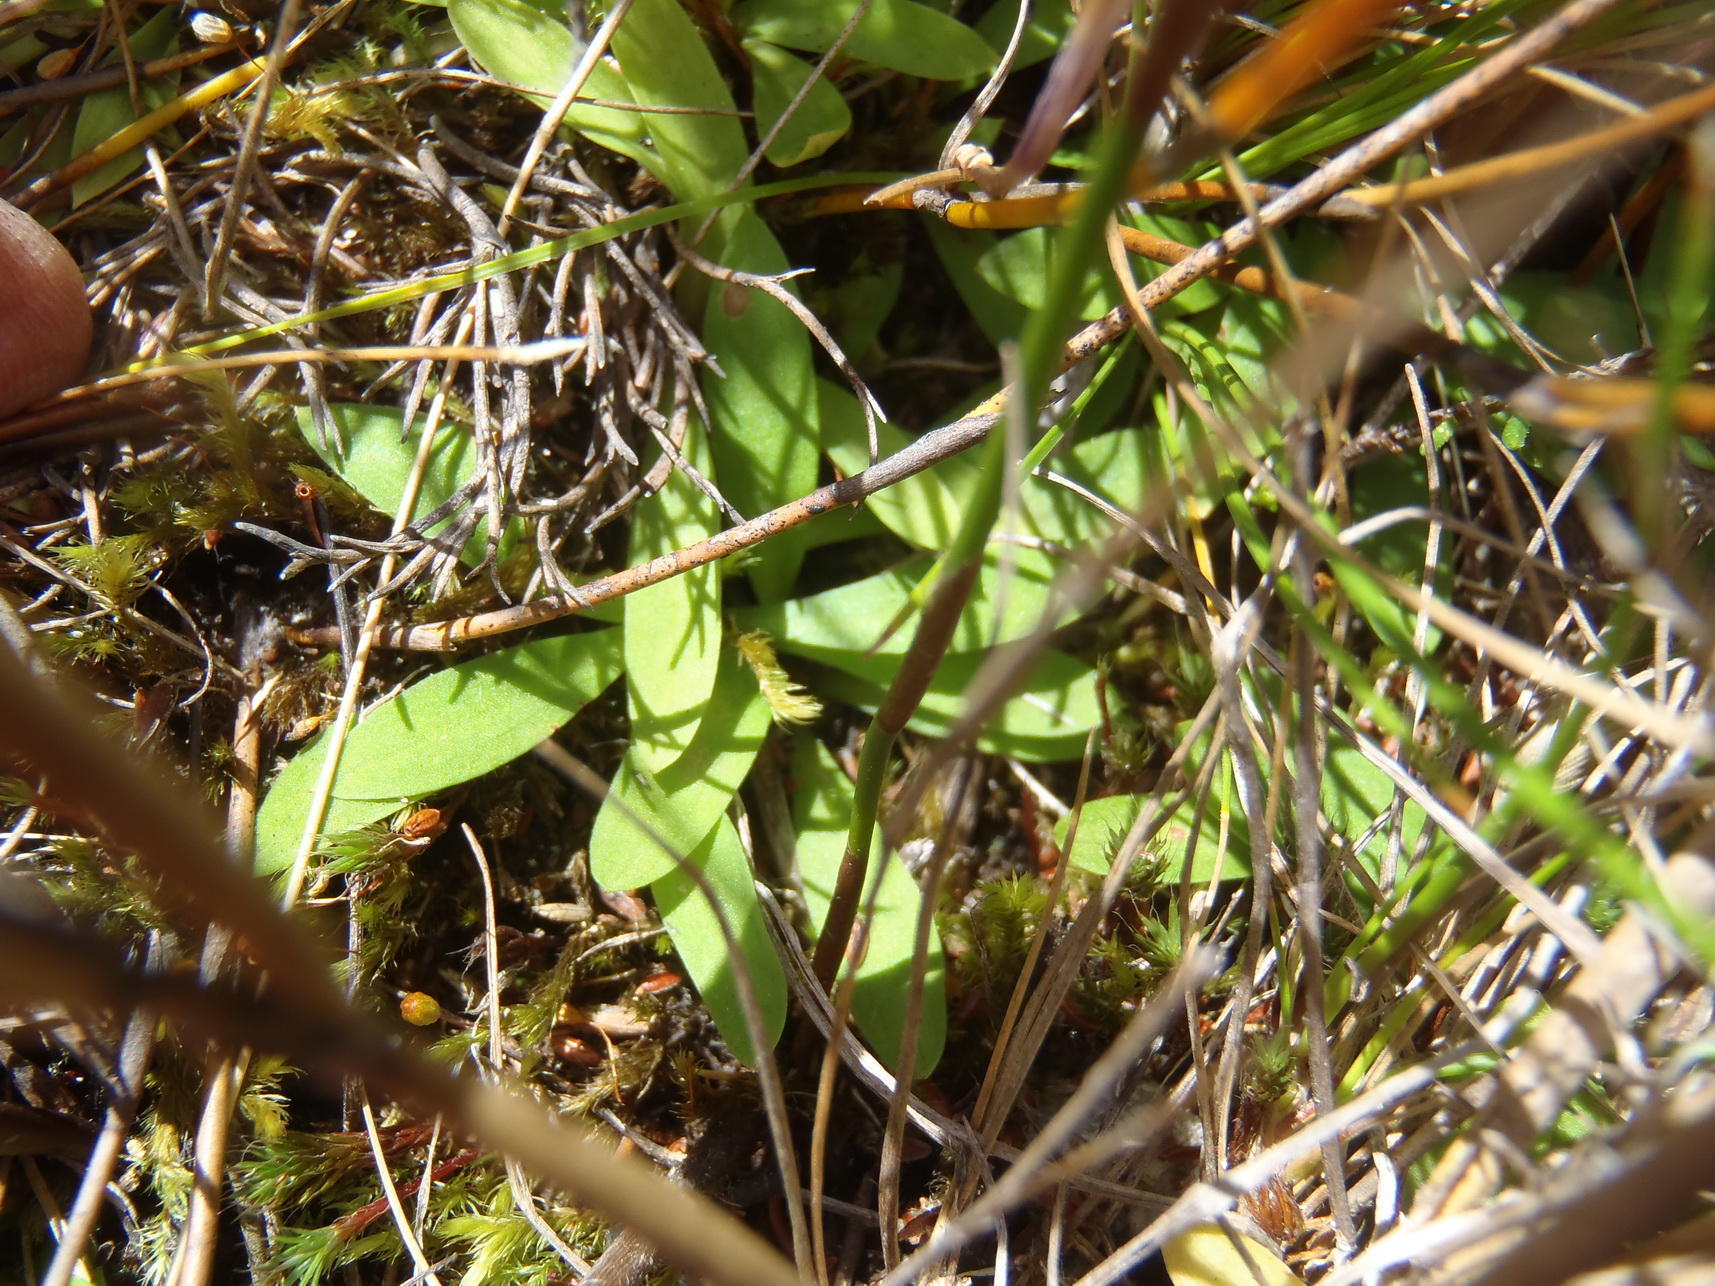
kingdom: Plantae
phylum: Tracheophyta
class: Liliopsida
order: Asparagales
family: Orchidaceae
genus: Disa
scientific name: Disa schizodioides
